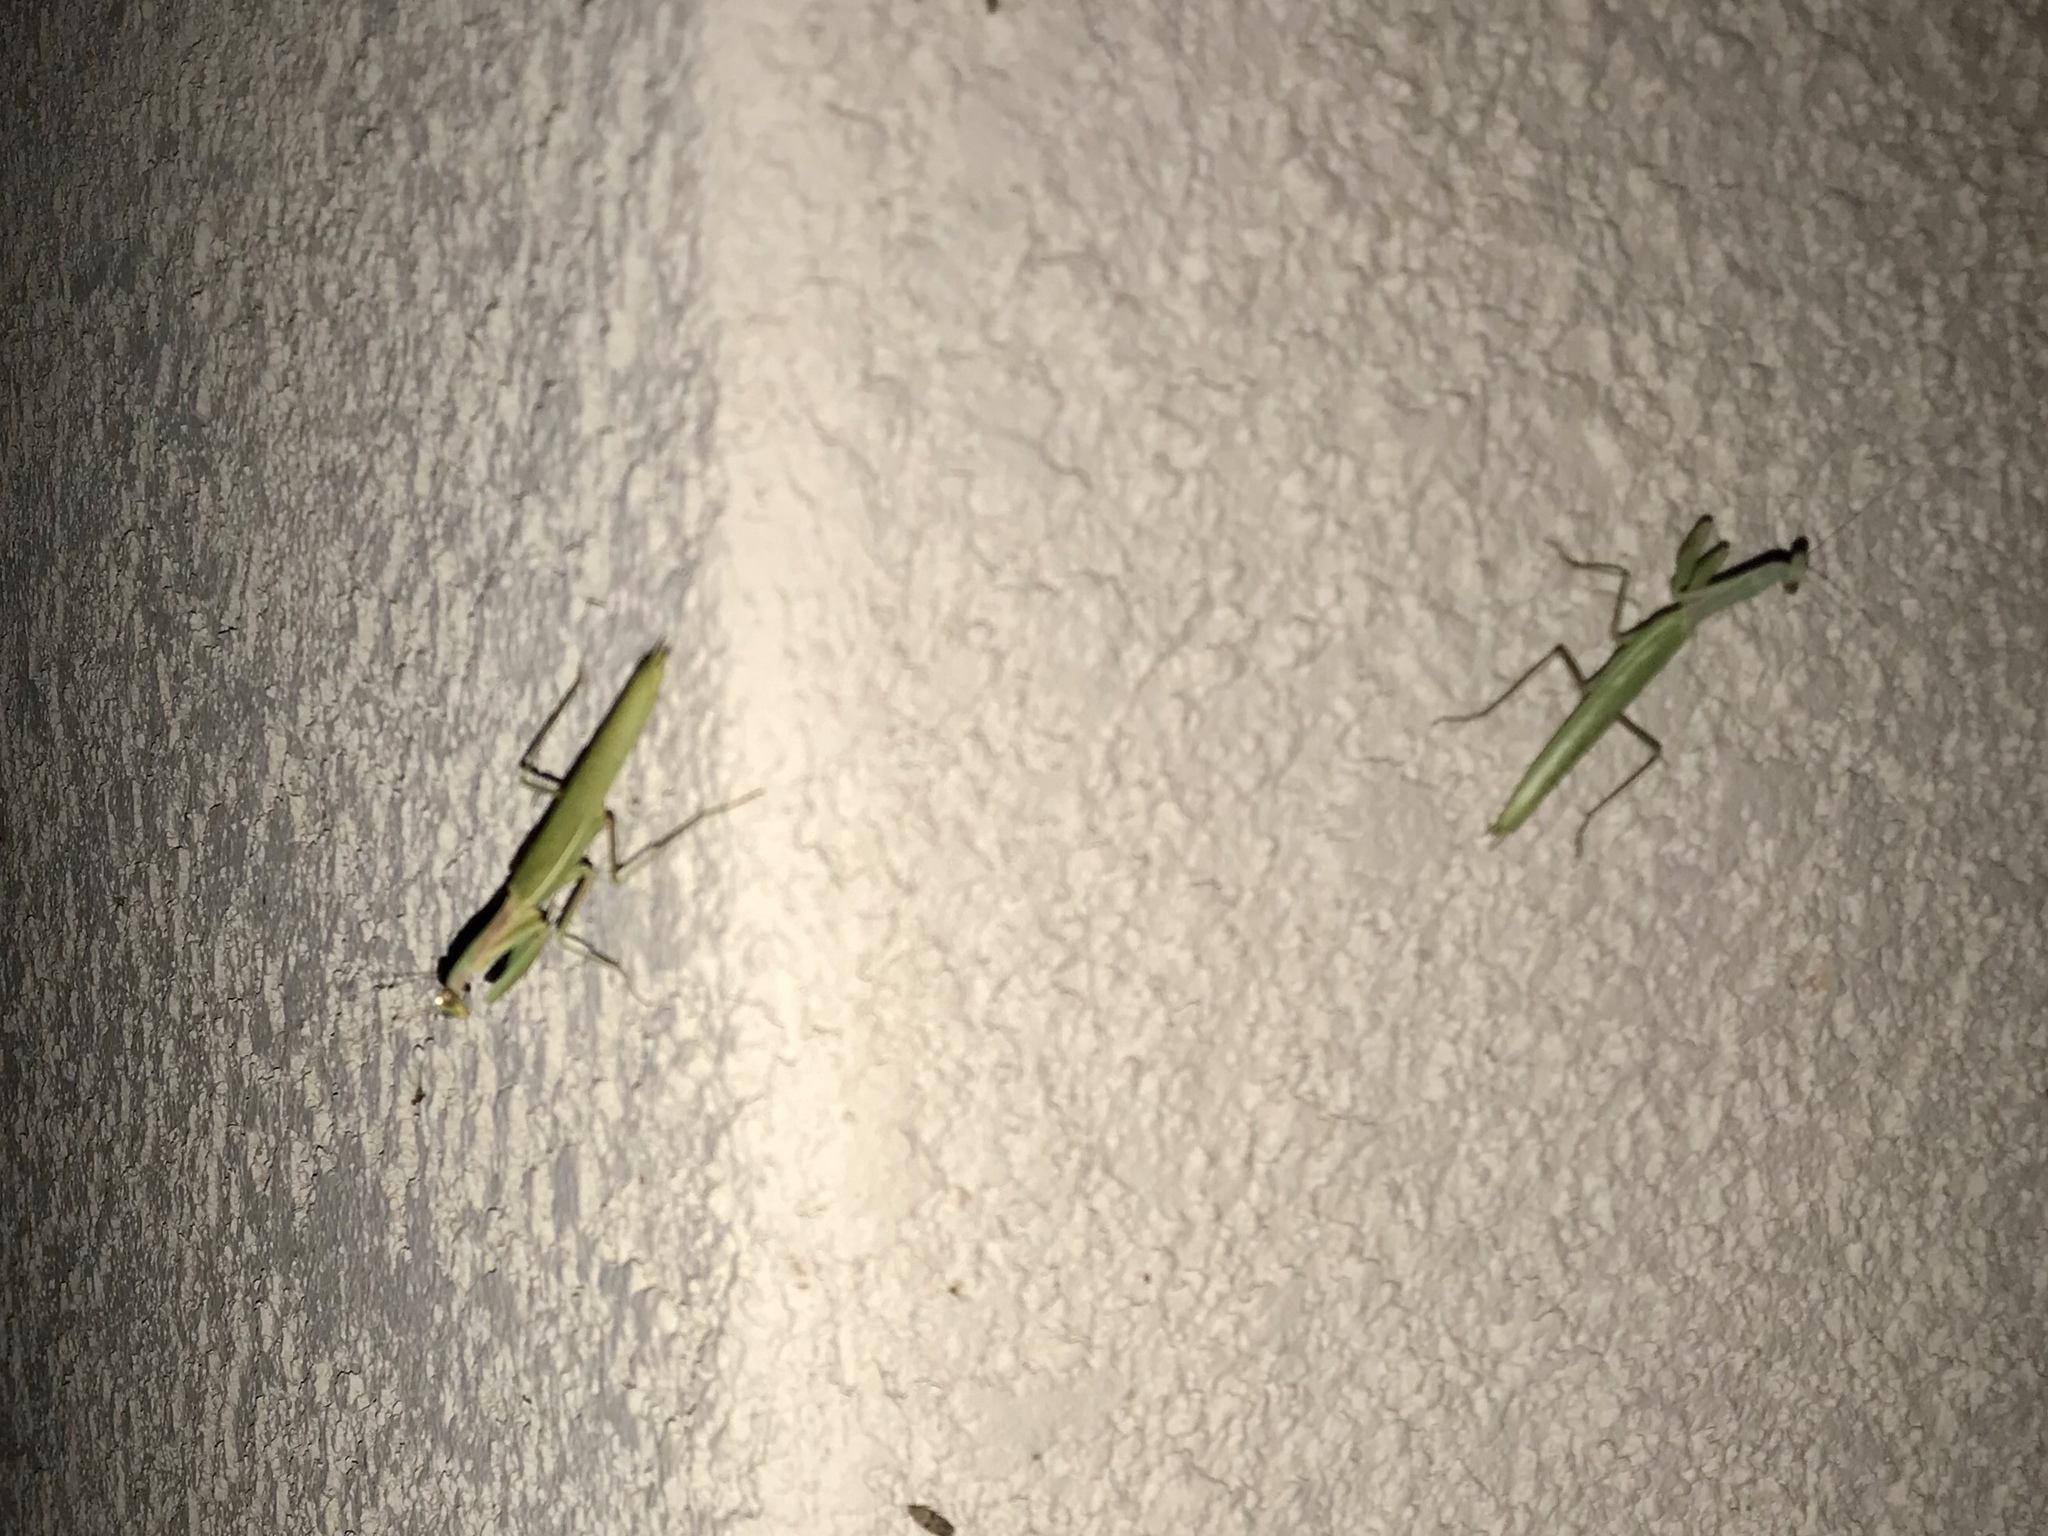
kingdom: Animalia
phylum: Arthropoda
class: Insecta
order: Mantodea
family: Eremiaphilidae
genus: Iris
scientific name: Iris oratoria
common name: Mediterranean mantis
